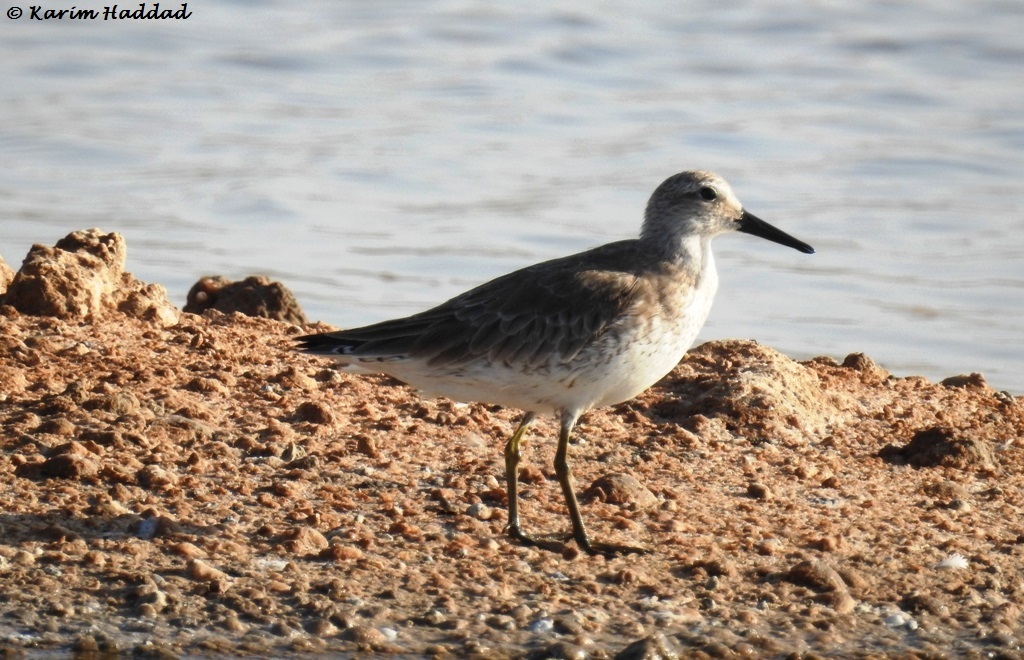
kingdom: Animalia
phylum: Chordata
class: Aves
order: Charadriiformes
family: Scolopacidae
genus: Calidris
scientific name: Calidris canutus
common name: Red knot
